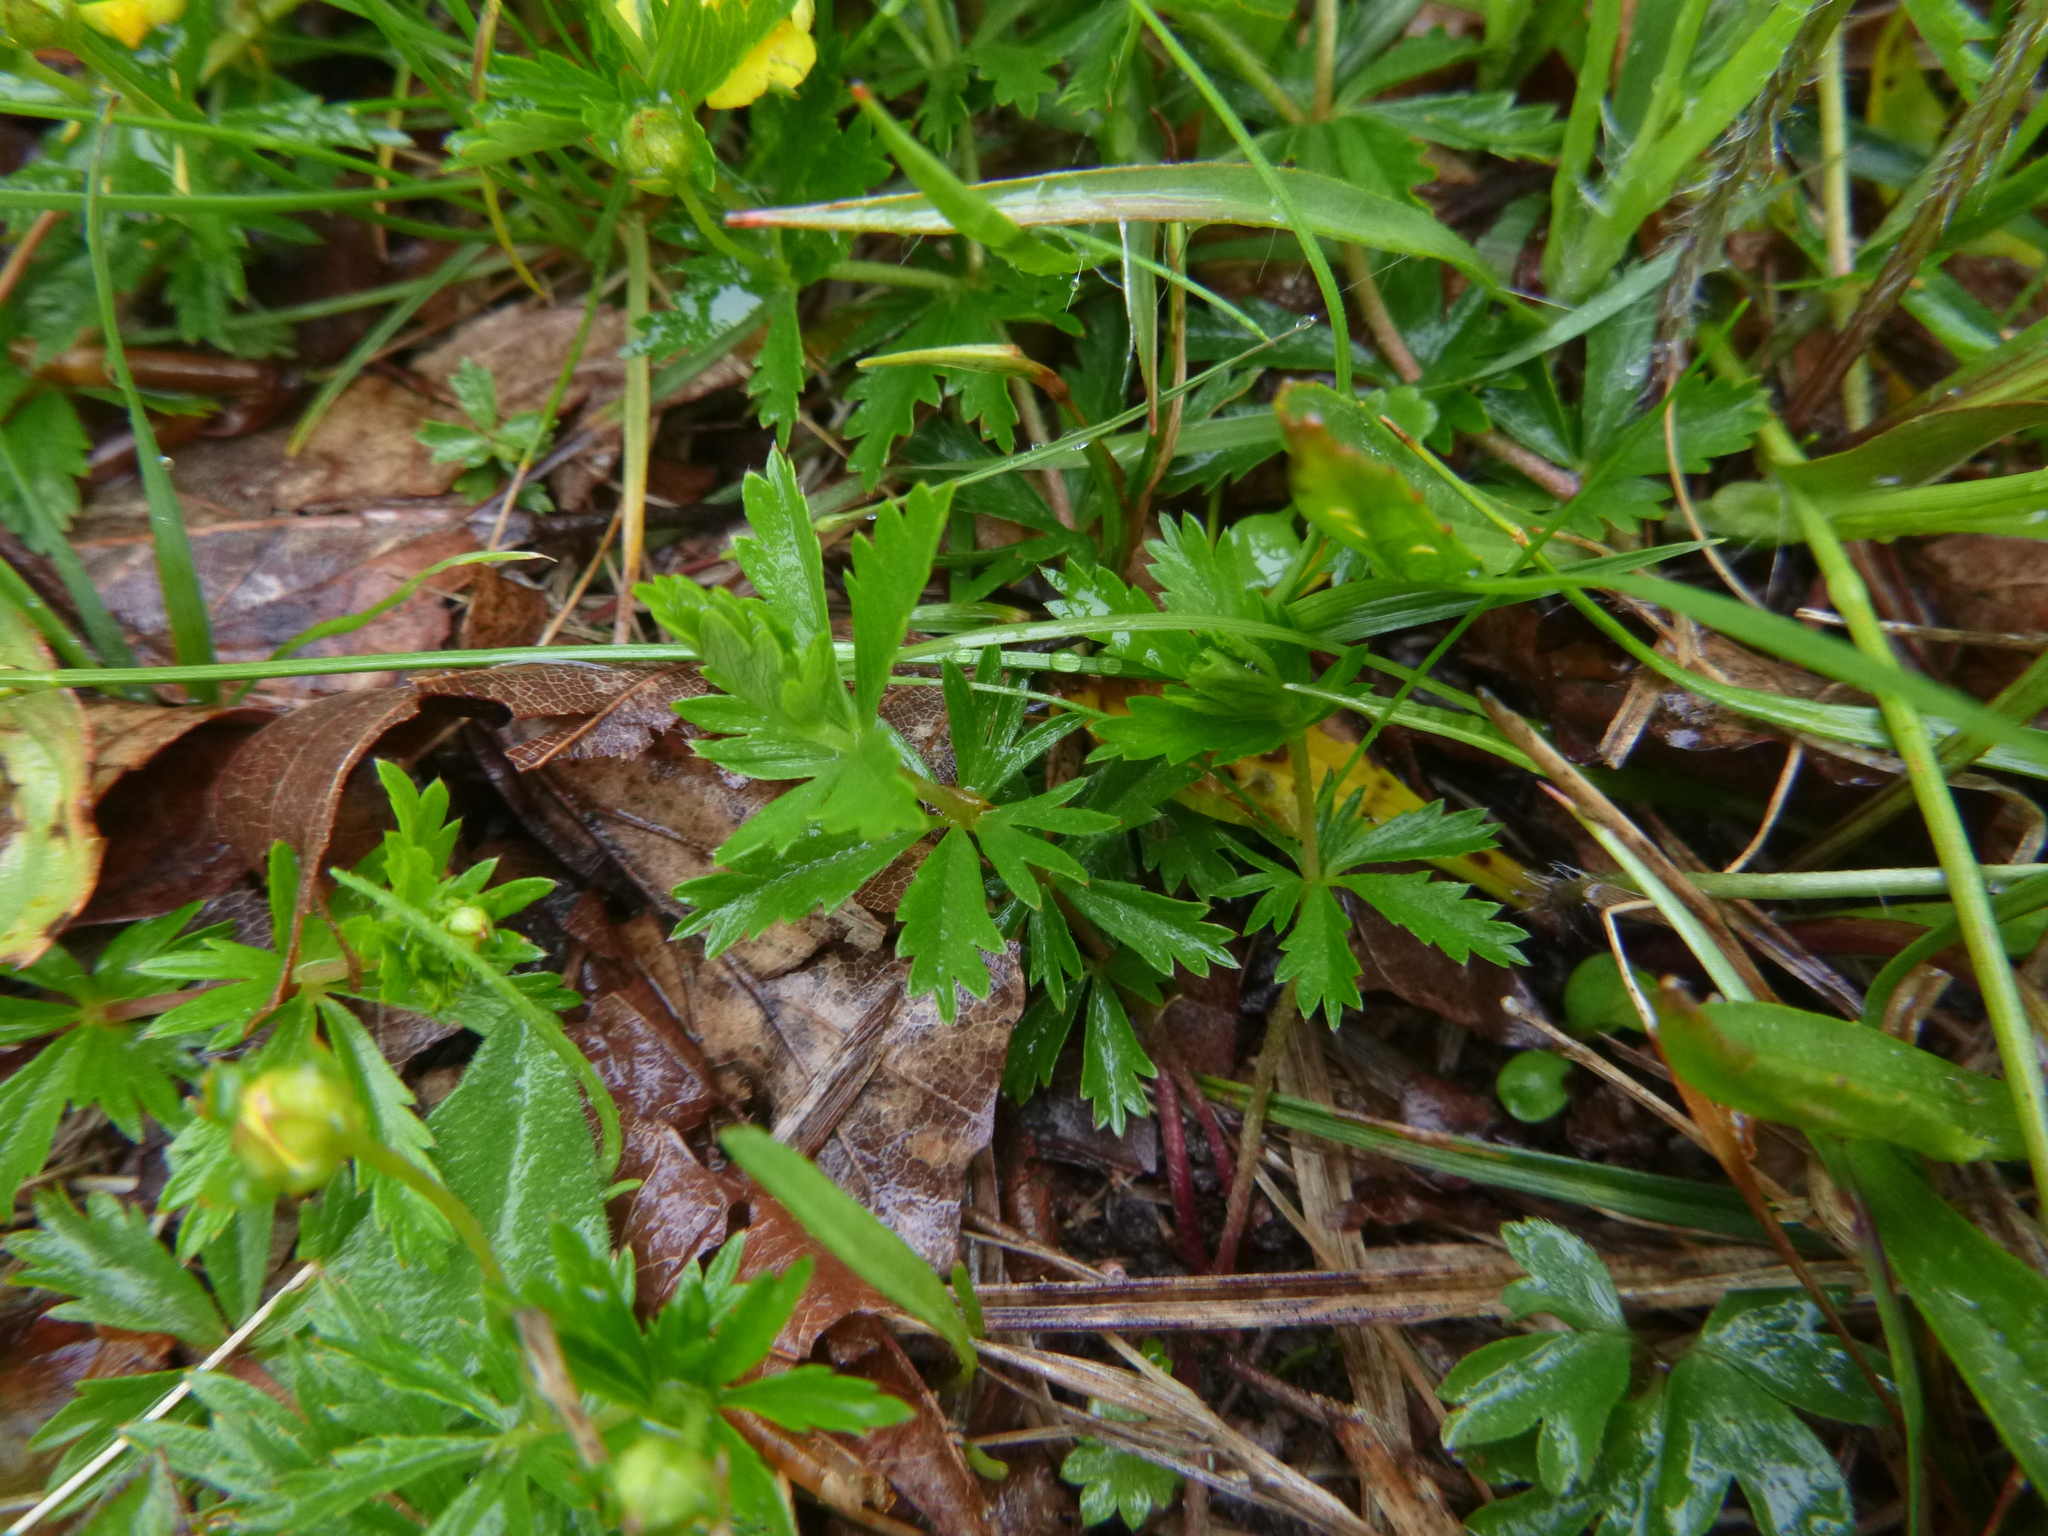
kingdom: Plantae
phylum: Tracheophyta
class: Magnoliopsida
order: Rosales
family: Rosaceae
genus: Potentilla
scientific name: Potentilla erecta
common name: Tormentil
